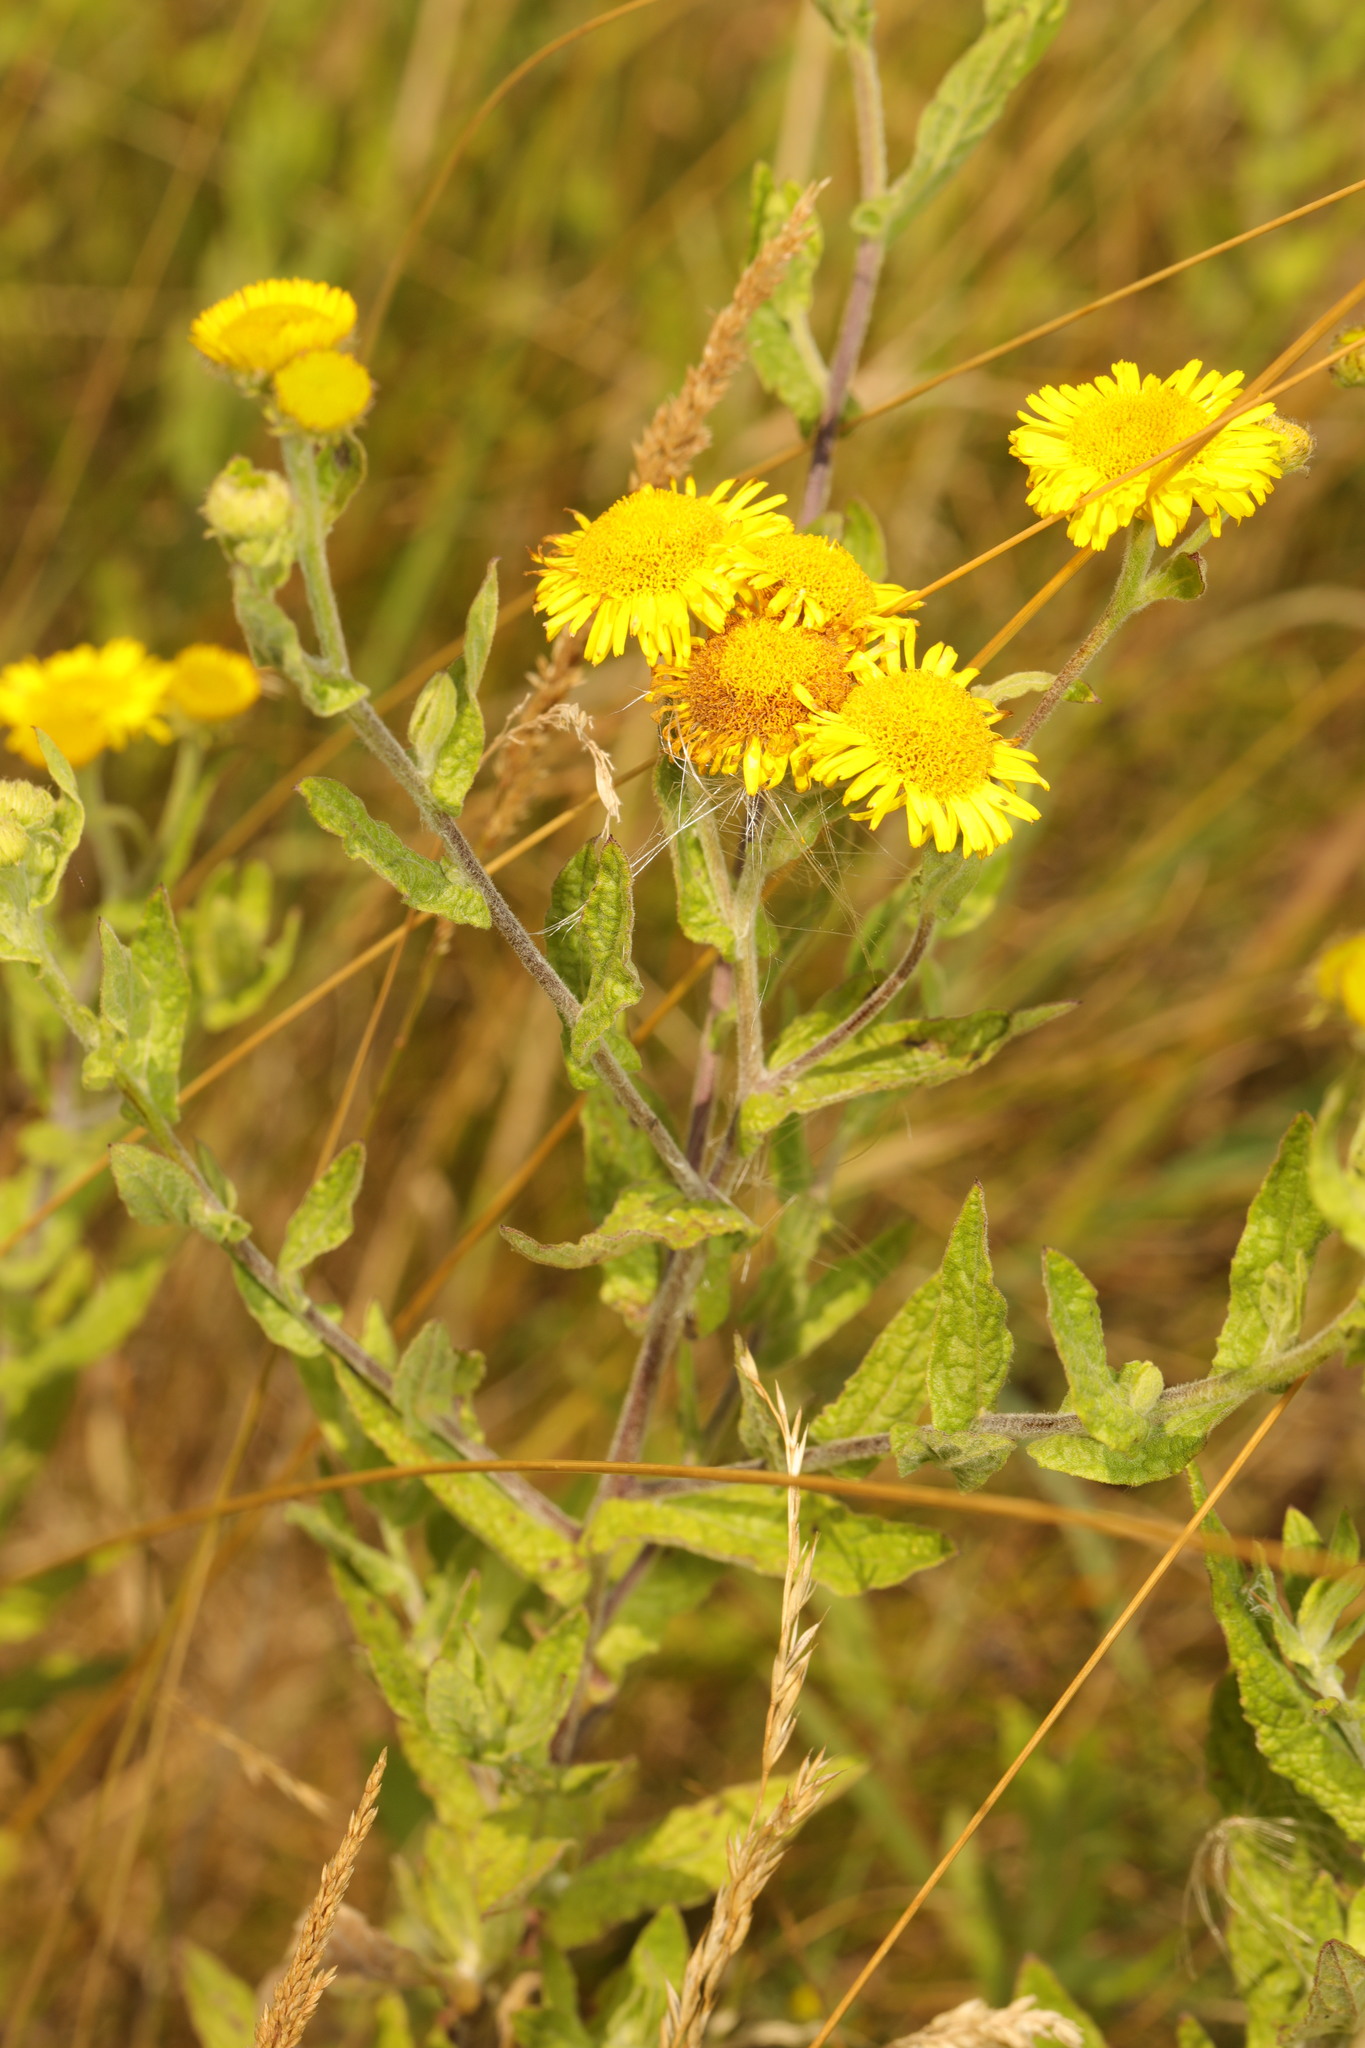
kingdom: Plantae
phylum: Tracheophyta
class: Magnoliopsida
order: Asterales
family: Asteraceae
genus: Pulicaria
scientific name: Pulicaria dysenterica
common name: Common fleabane
